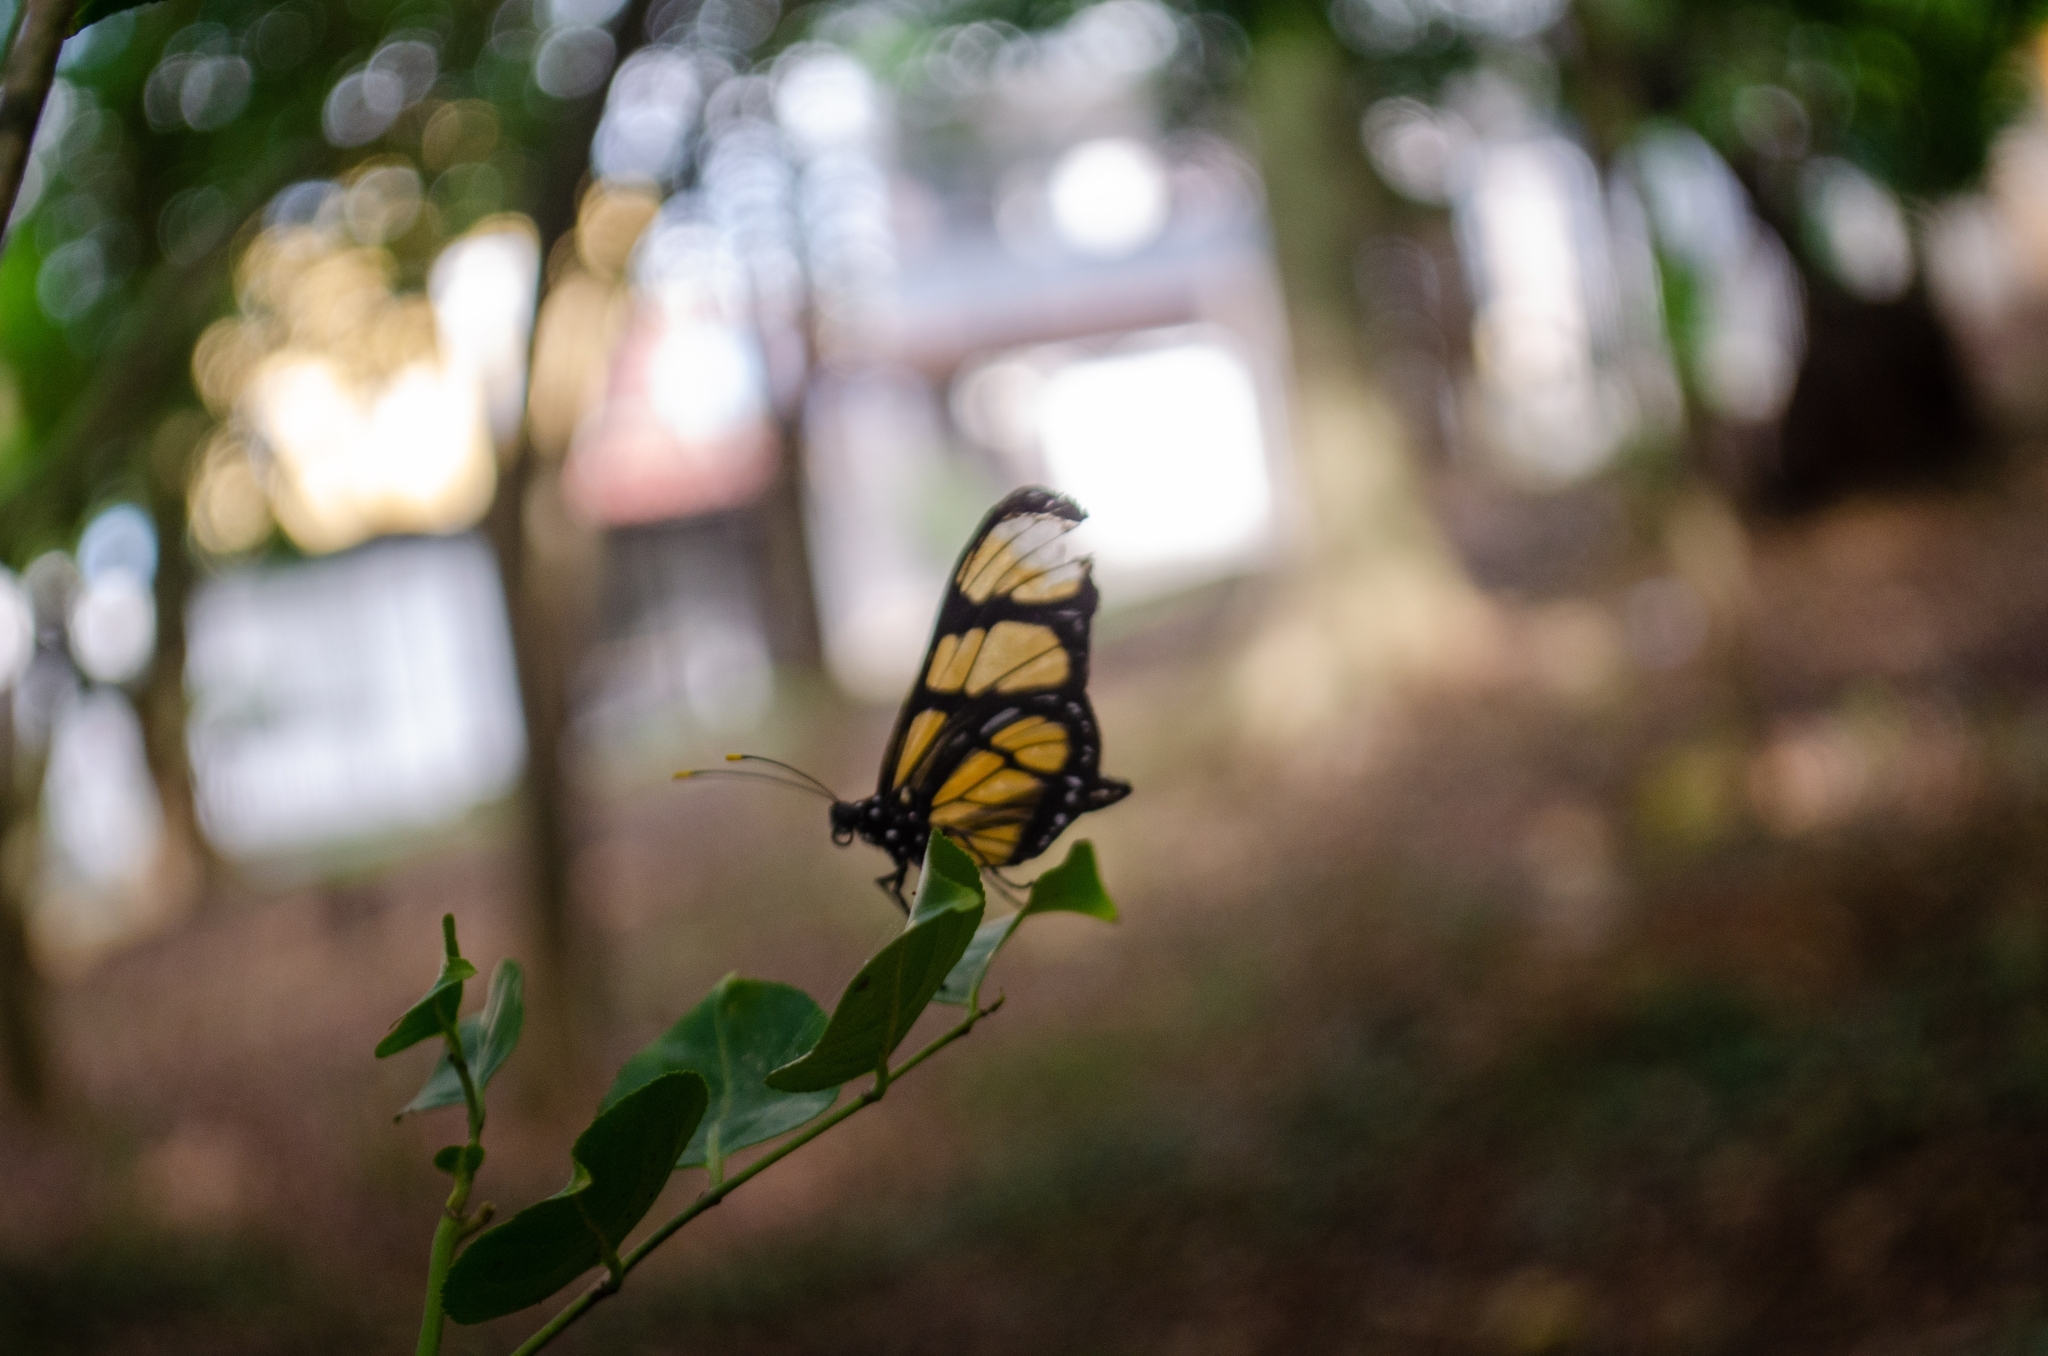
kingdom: Animalia
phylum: Arthropoda
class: Insecta
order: Lepidoptera
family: Nymphalidae
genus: Methona
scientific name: Methona themisto
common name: Themisto amberwing
